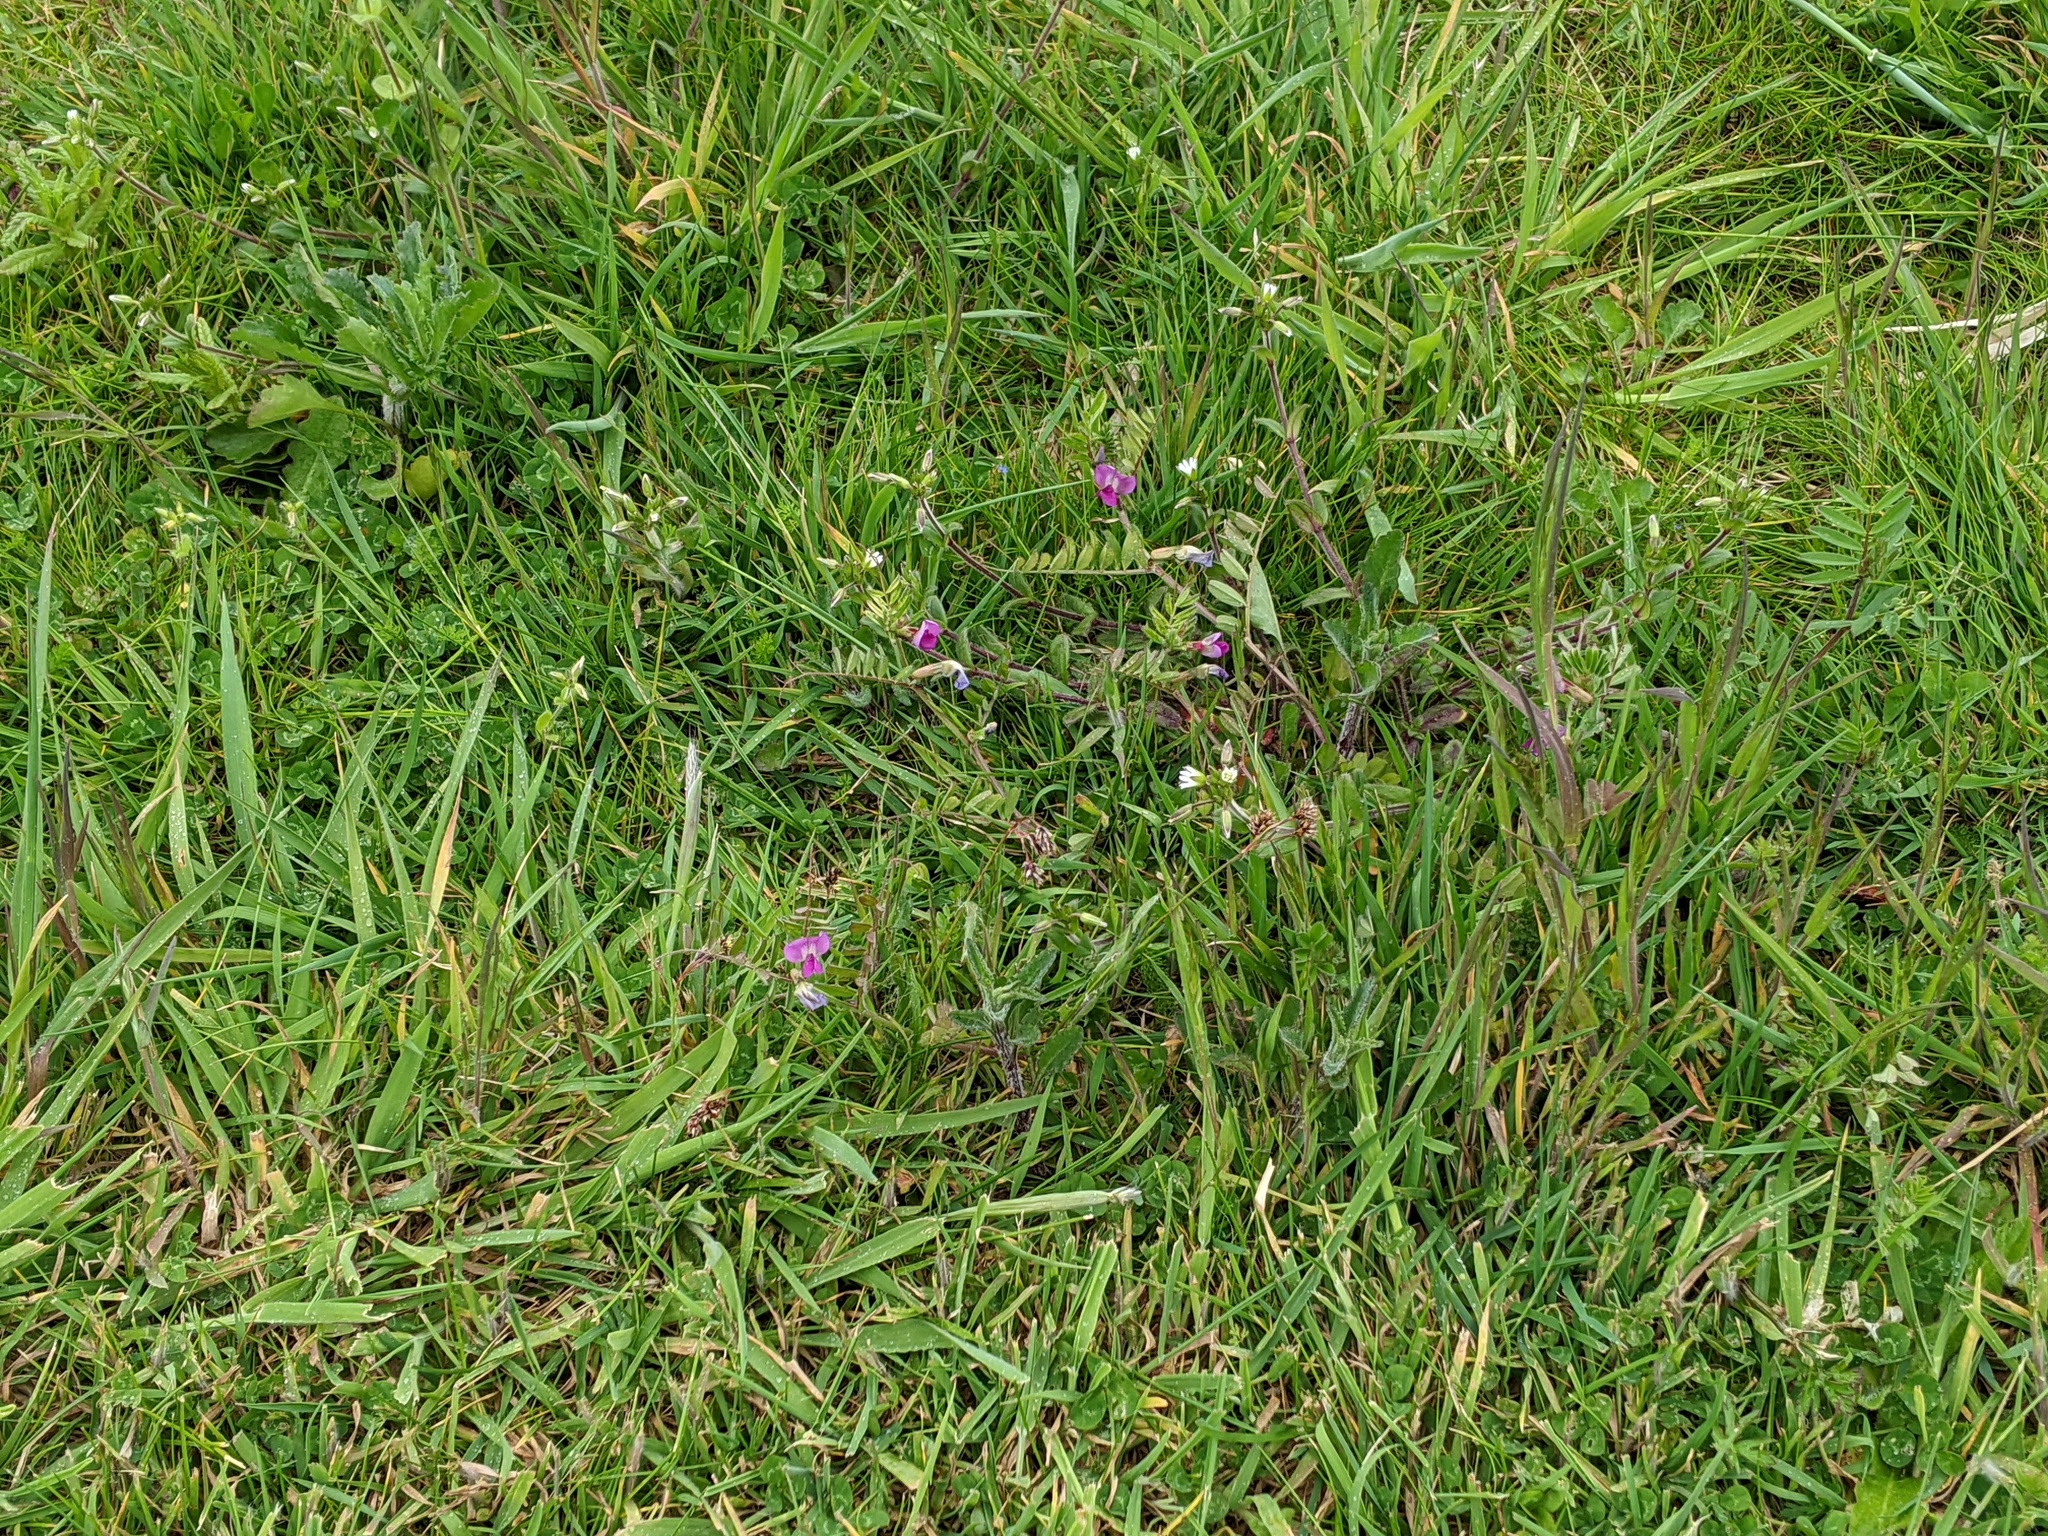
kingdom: Plantae
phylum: Tracheophyta
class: Magnoliopsida
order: Fabales
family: Fabaceae
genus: Vicia
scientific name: Vicia sativa
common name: Garden vetch
